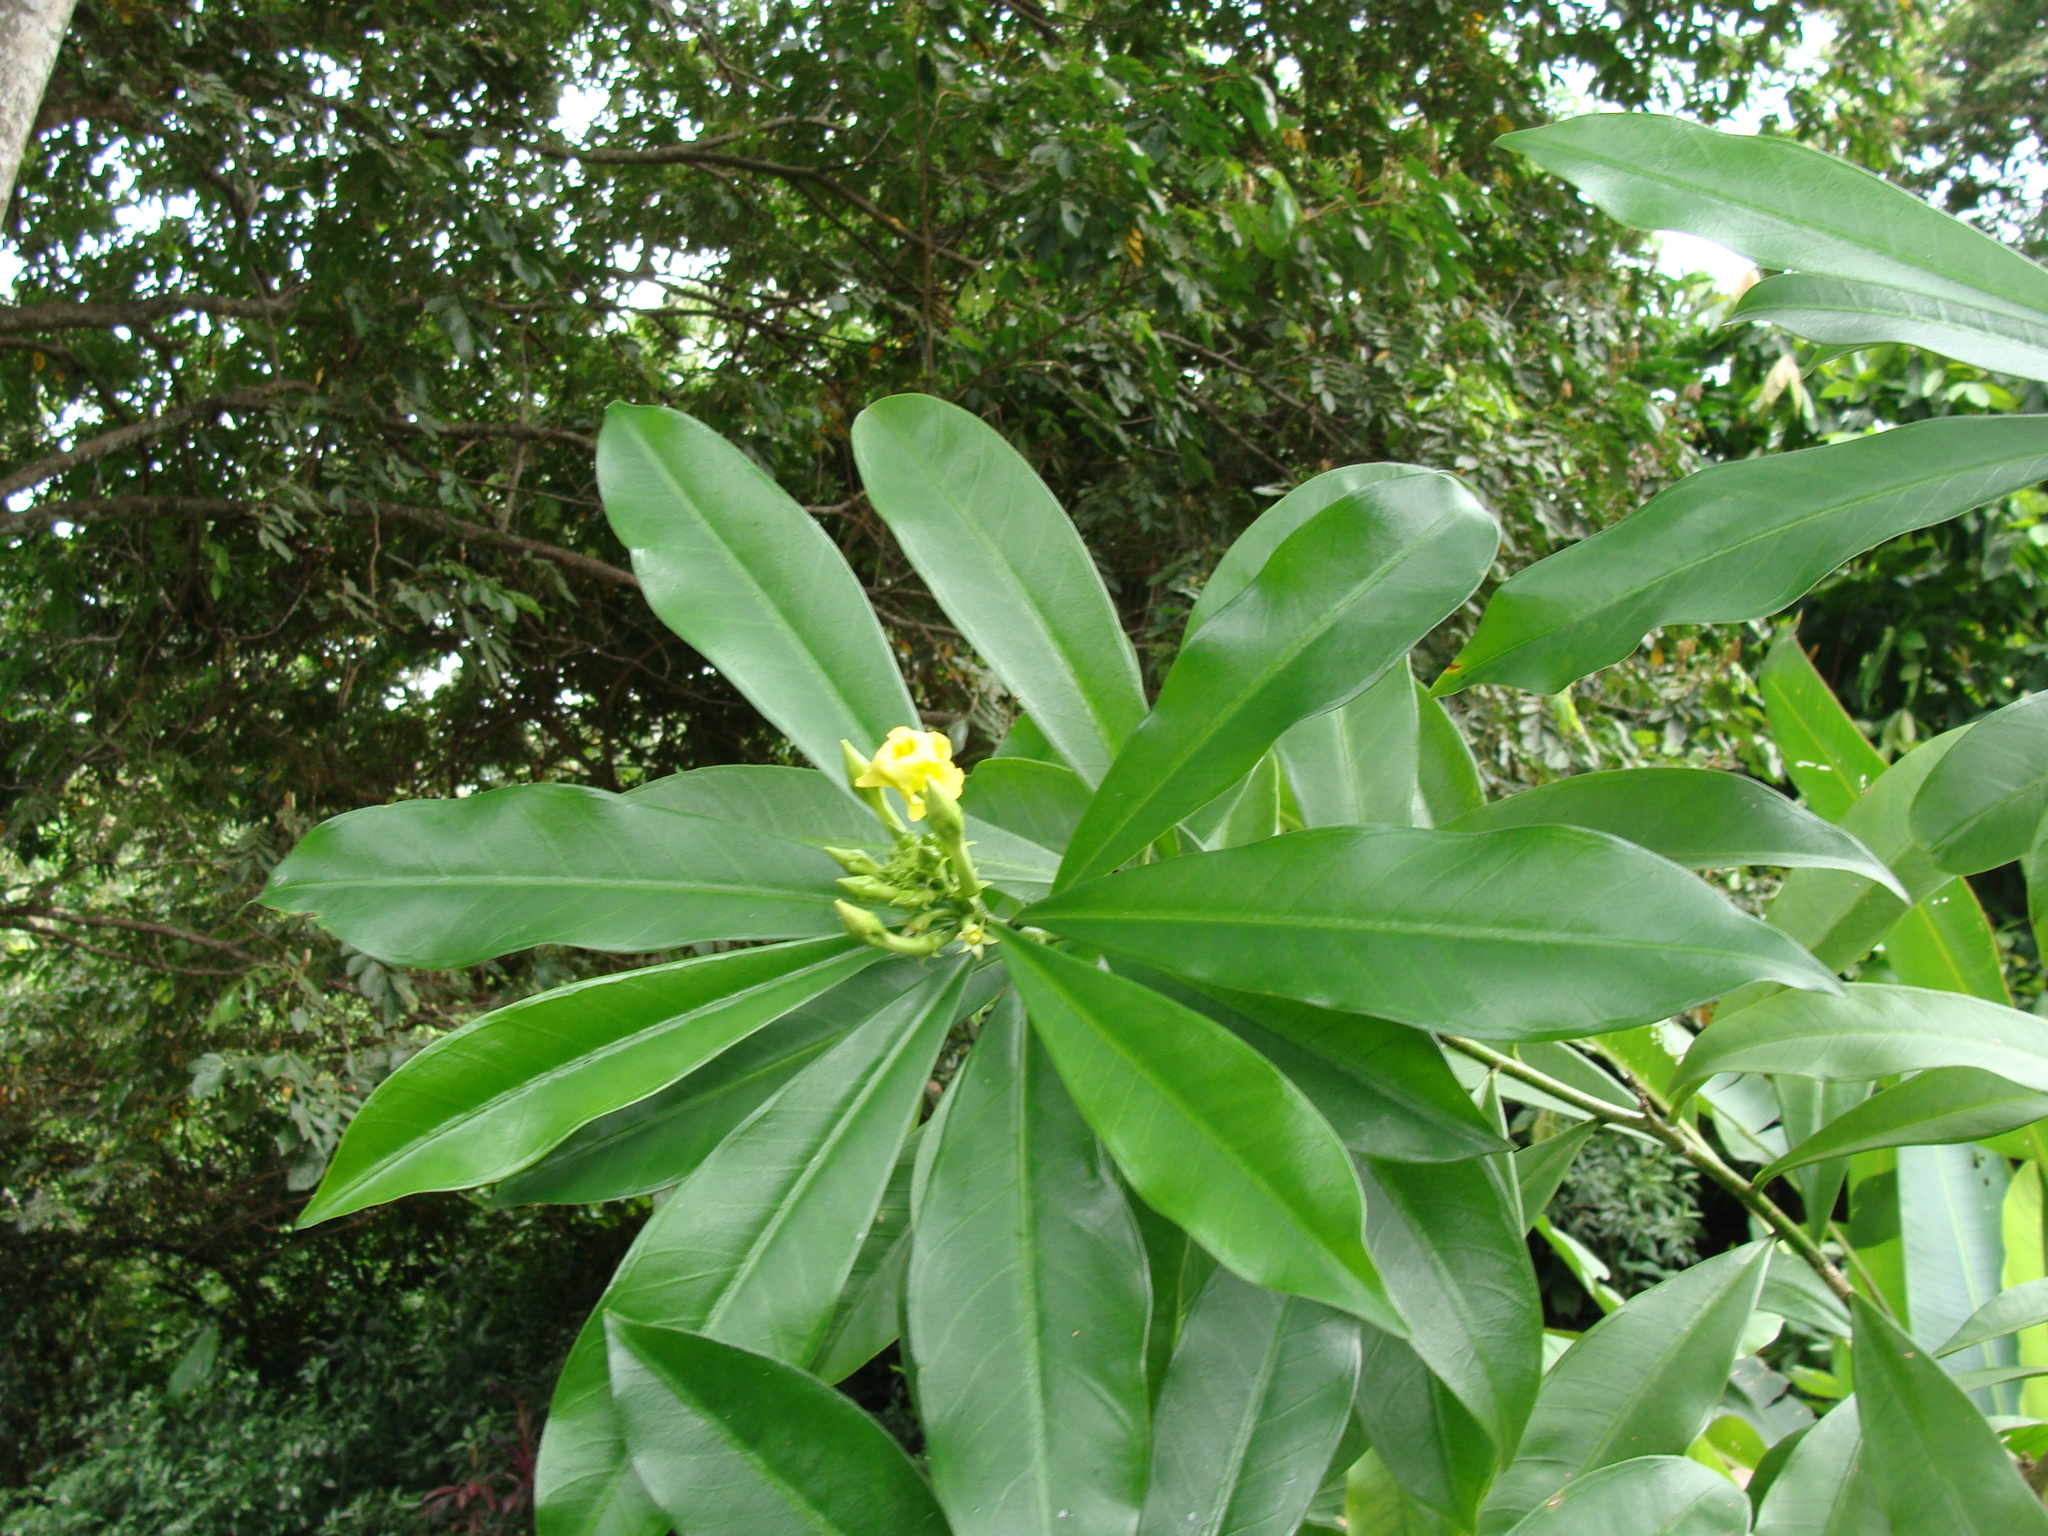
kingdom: Plantae
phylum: Tracheophyta
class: Magnoliopsida
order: Gentianales
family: Apocynaceae
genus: Thevetia
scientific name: Thevetia ahouai
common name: Broadleaf thevetia
